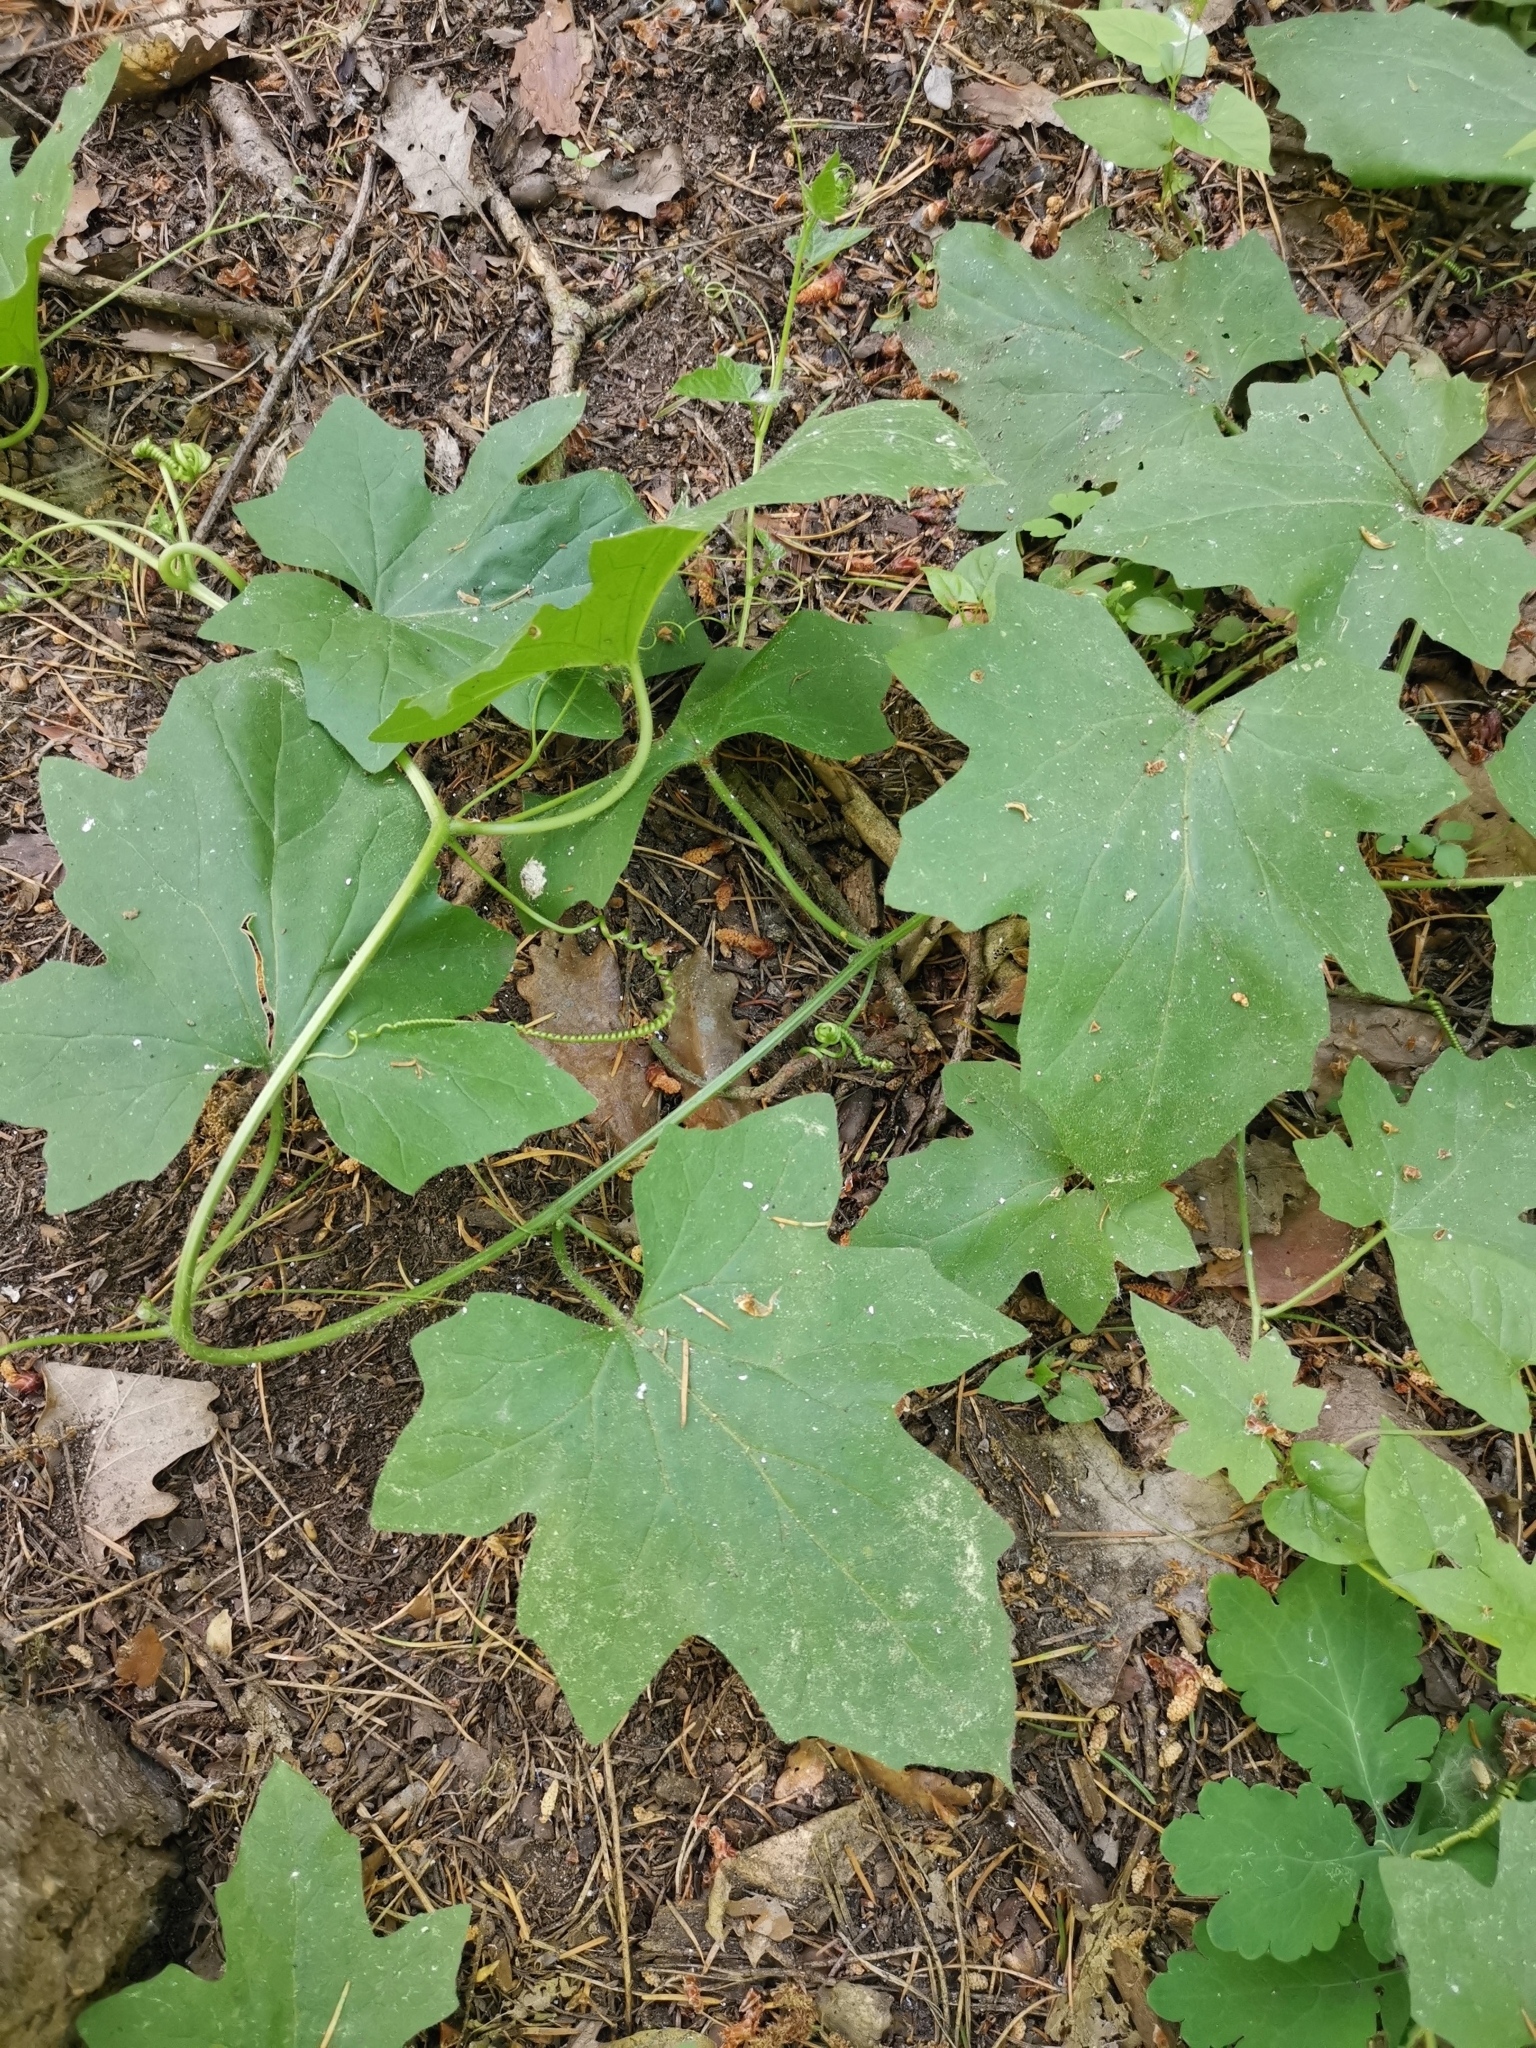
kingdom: Plantae
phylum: Tracheophyta
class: Magnoliopsida
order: Cucurbitales
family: Cucurbitaceae
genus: Bryonia
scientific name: Bryonia cretica
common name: Cretan bryony
